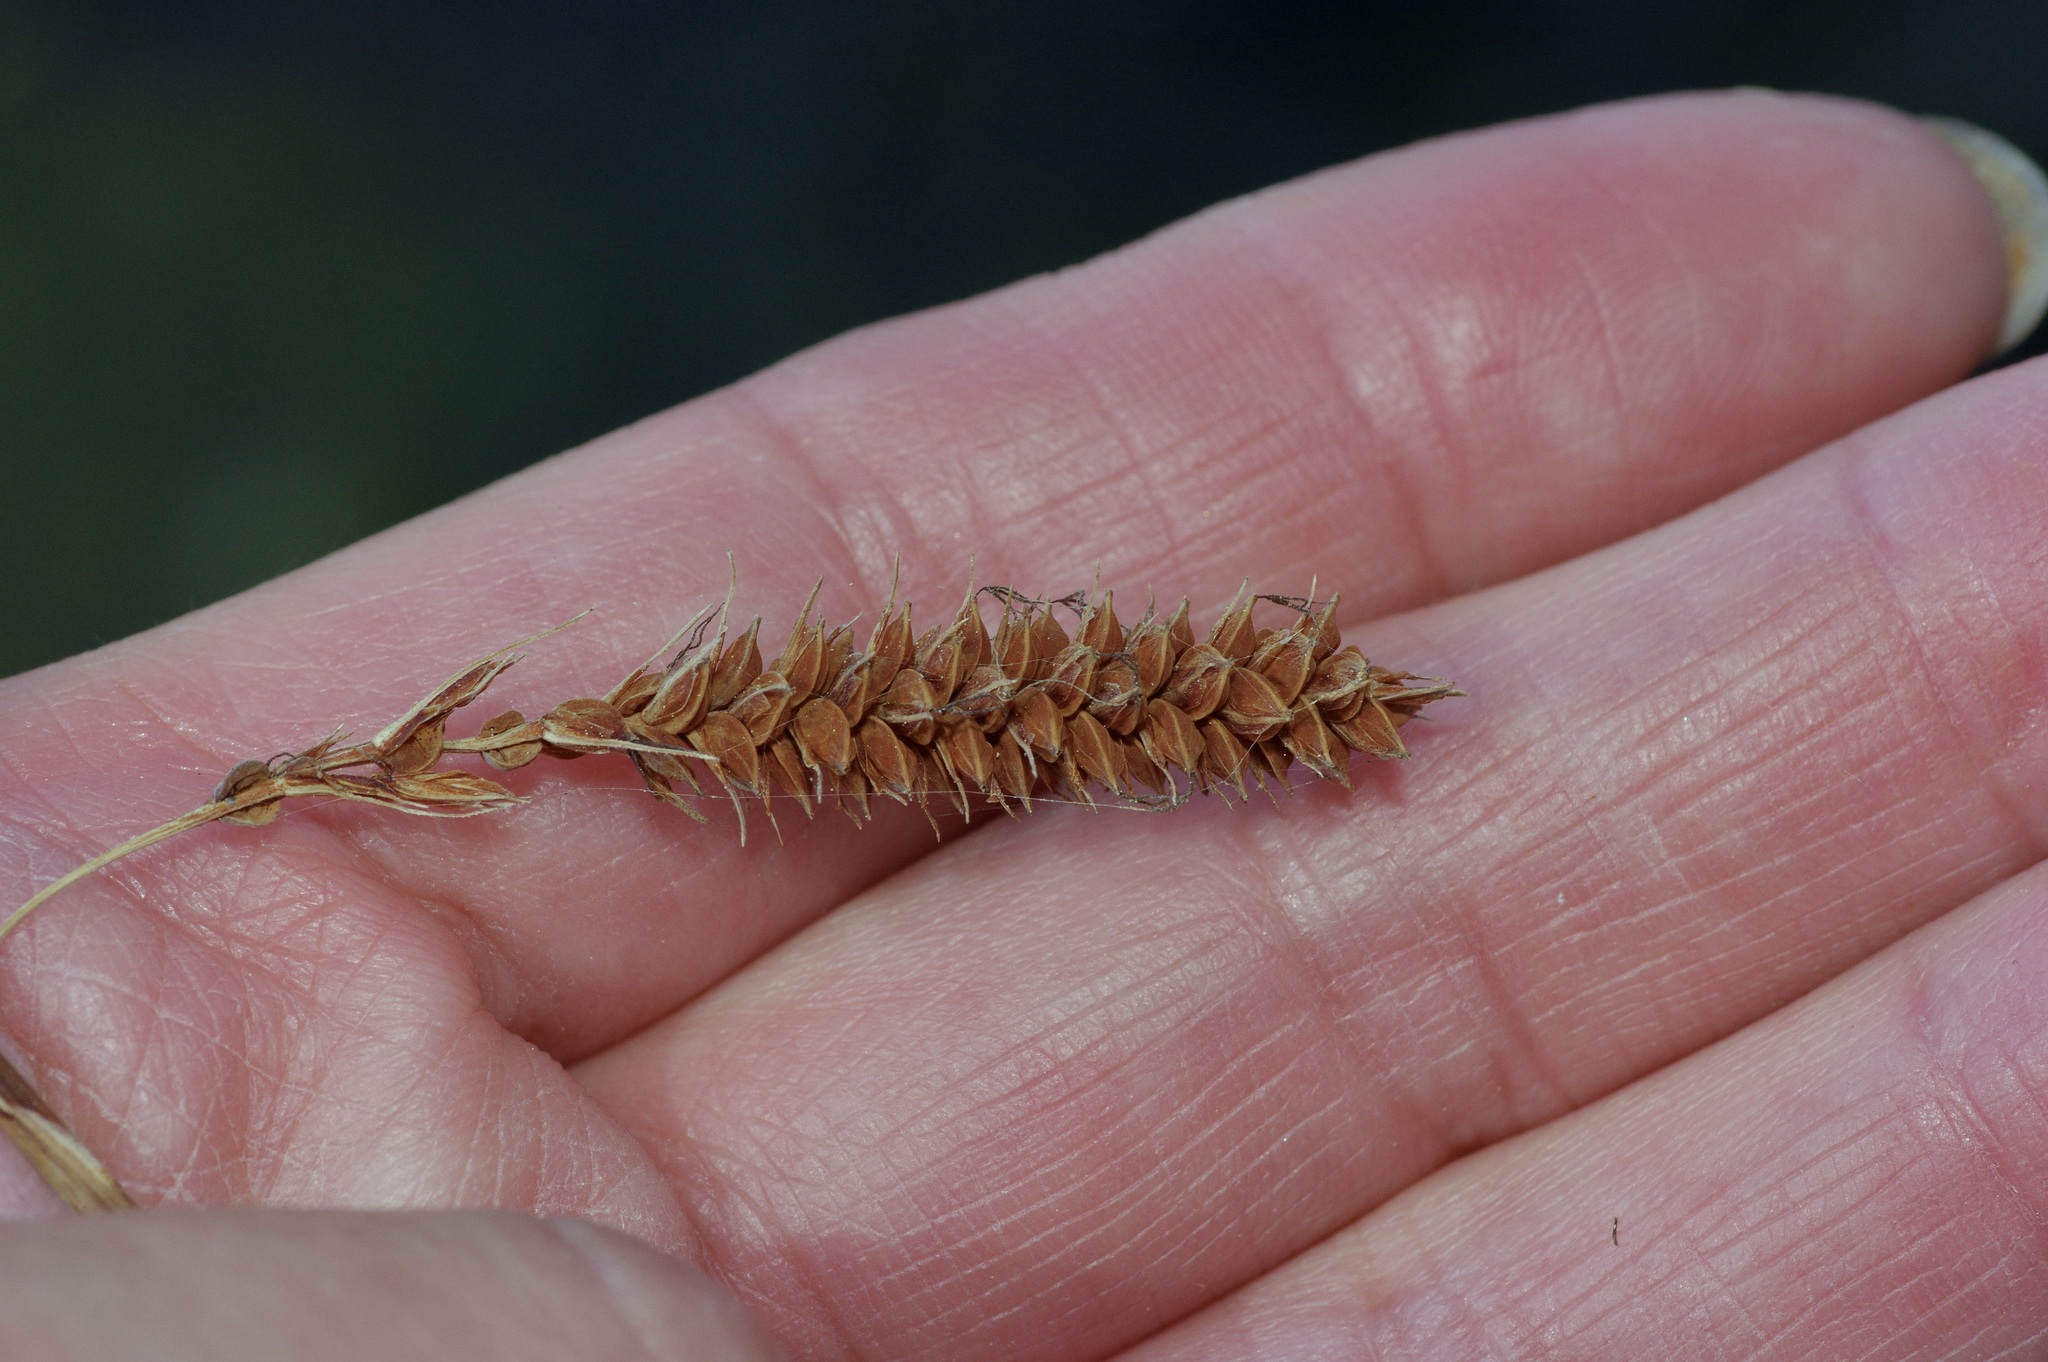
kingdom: Plantae
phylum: Tracheophyta
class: Liliopsida
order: Poales
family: Cyperaceae
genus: Carex
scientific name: Carex glaucescens
